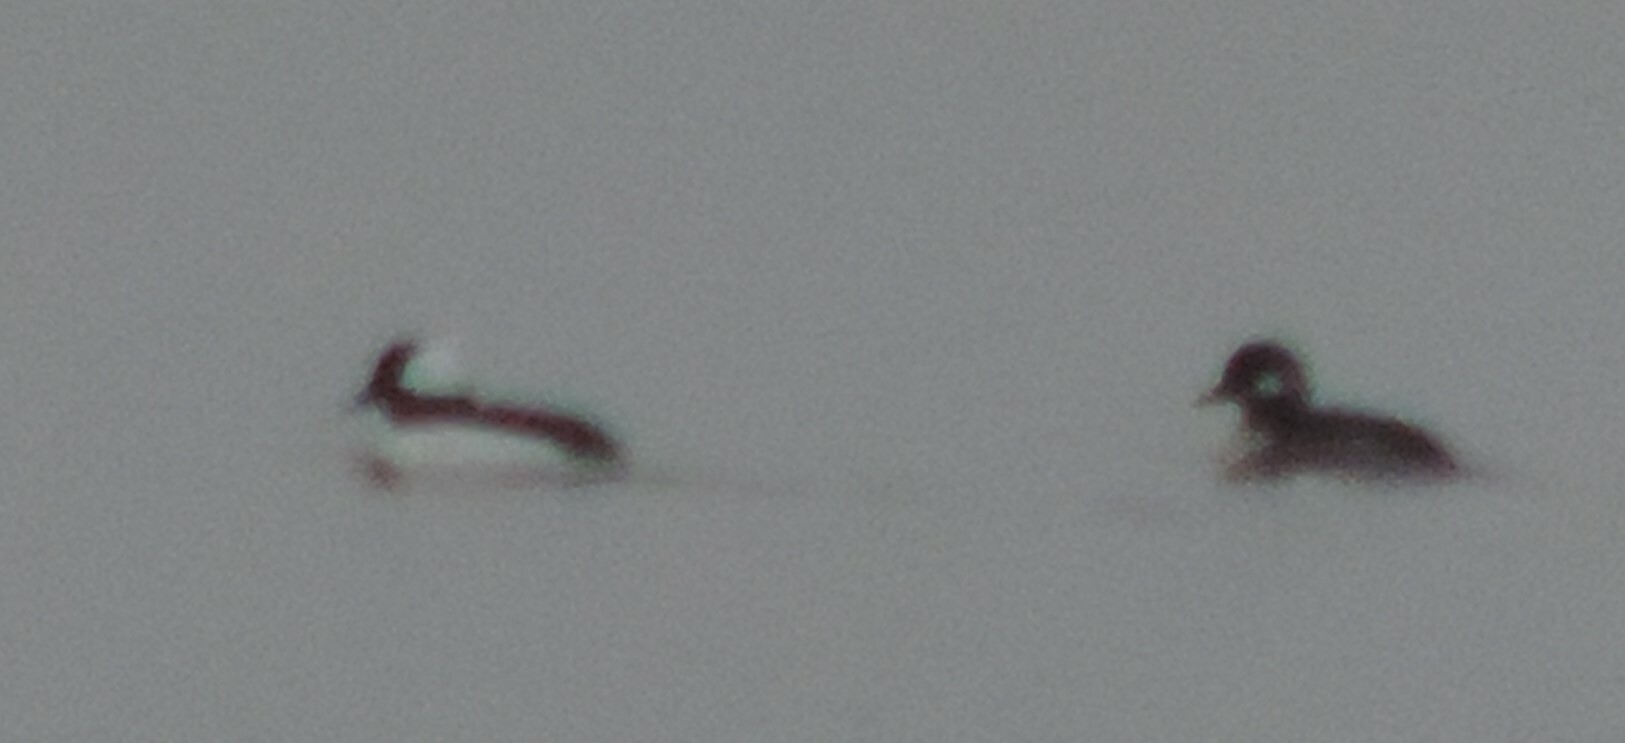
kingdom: Animalia
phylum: Chordata
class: Aves
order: Anseriformes
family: Anatidae
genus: Bucephala
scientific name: Bucephala albeola
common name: Bufflehead
